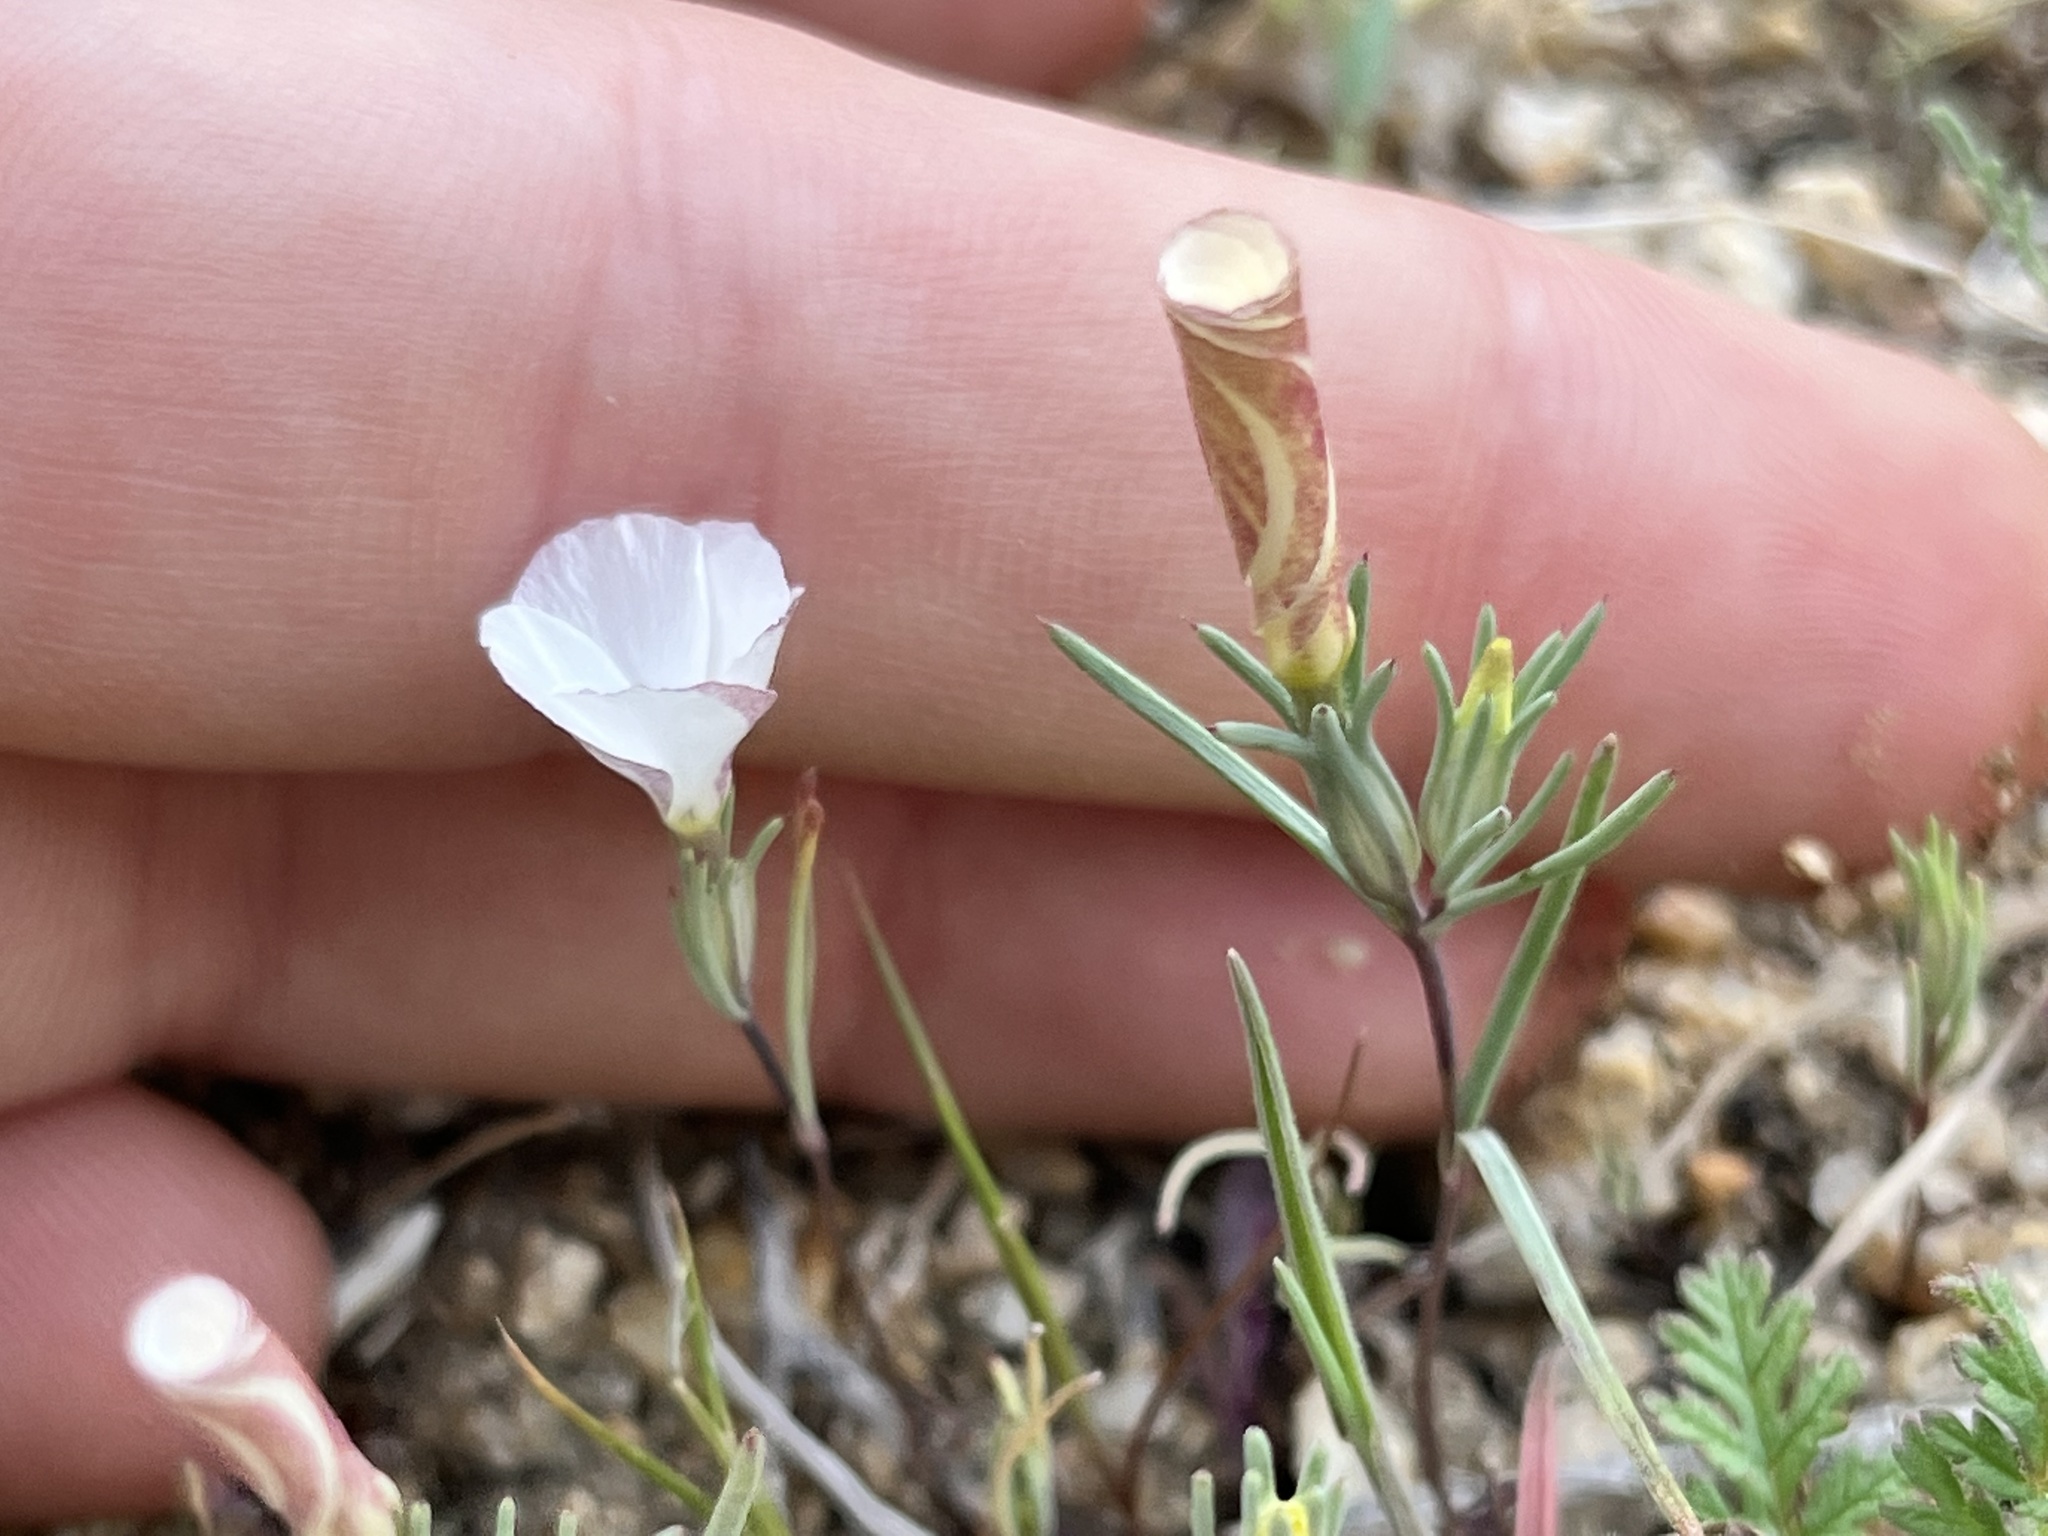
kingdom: Plantae
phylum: Tracheophyta
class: Magnoliopsida
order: Ericales
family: Polemoniaceae
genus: Linanthus
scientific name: Linanthus dichotomus
